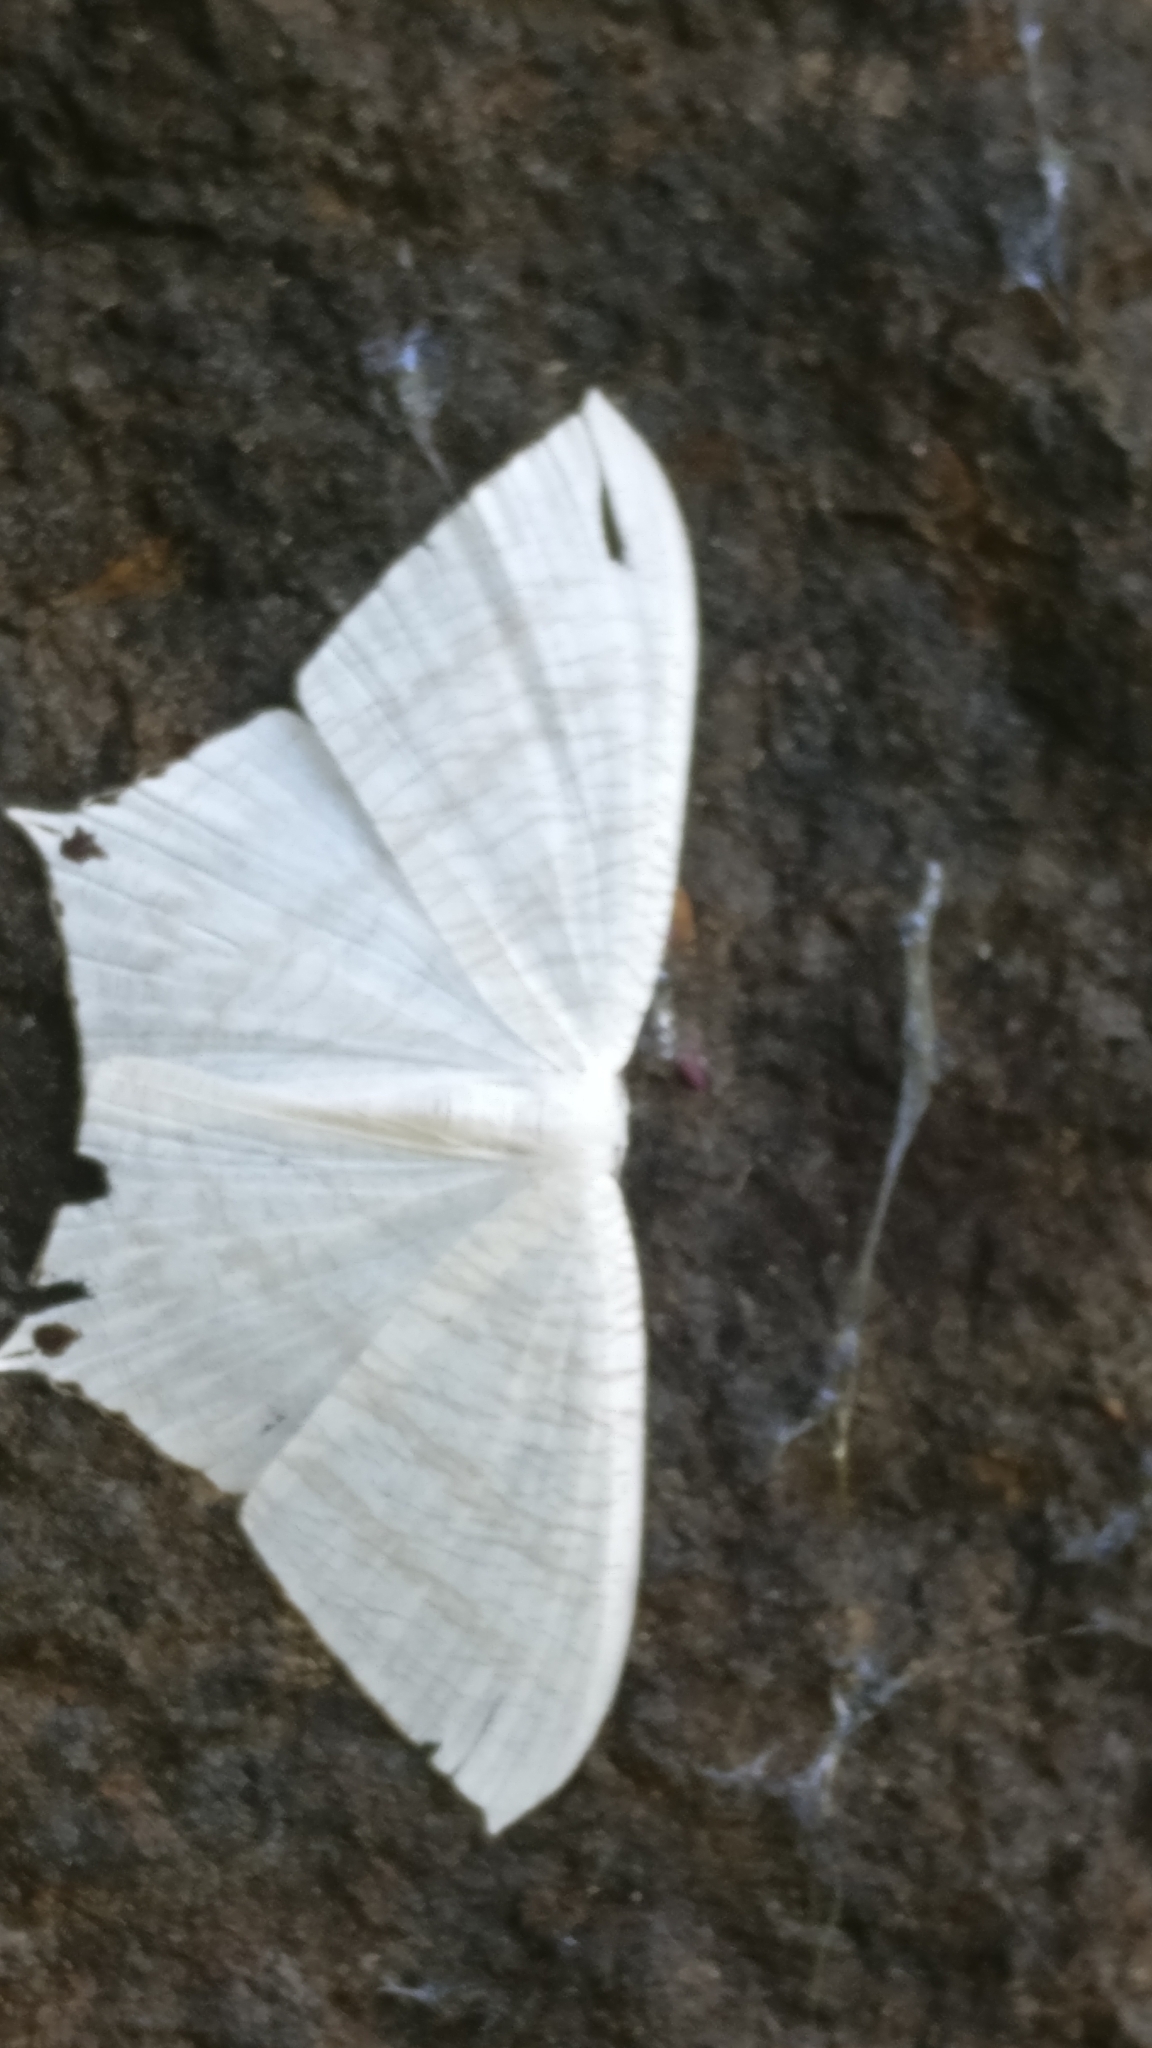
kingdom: Animalia
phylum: Arthropoda
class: Insecta
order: Lepidoptera
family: Uraniidae
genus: Micronia
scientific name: Micronia aculeata
